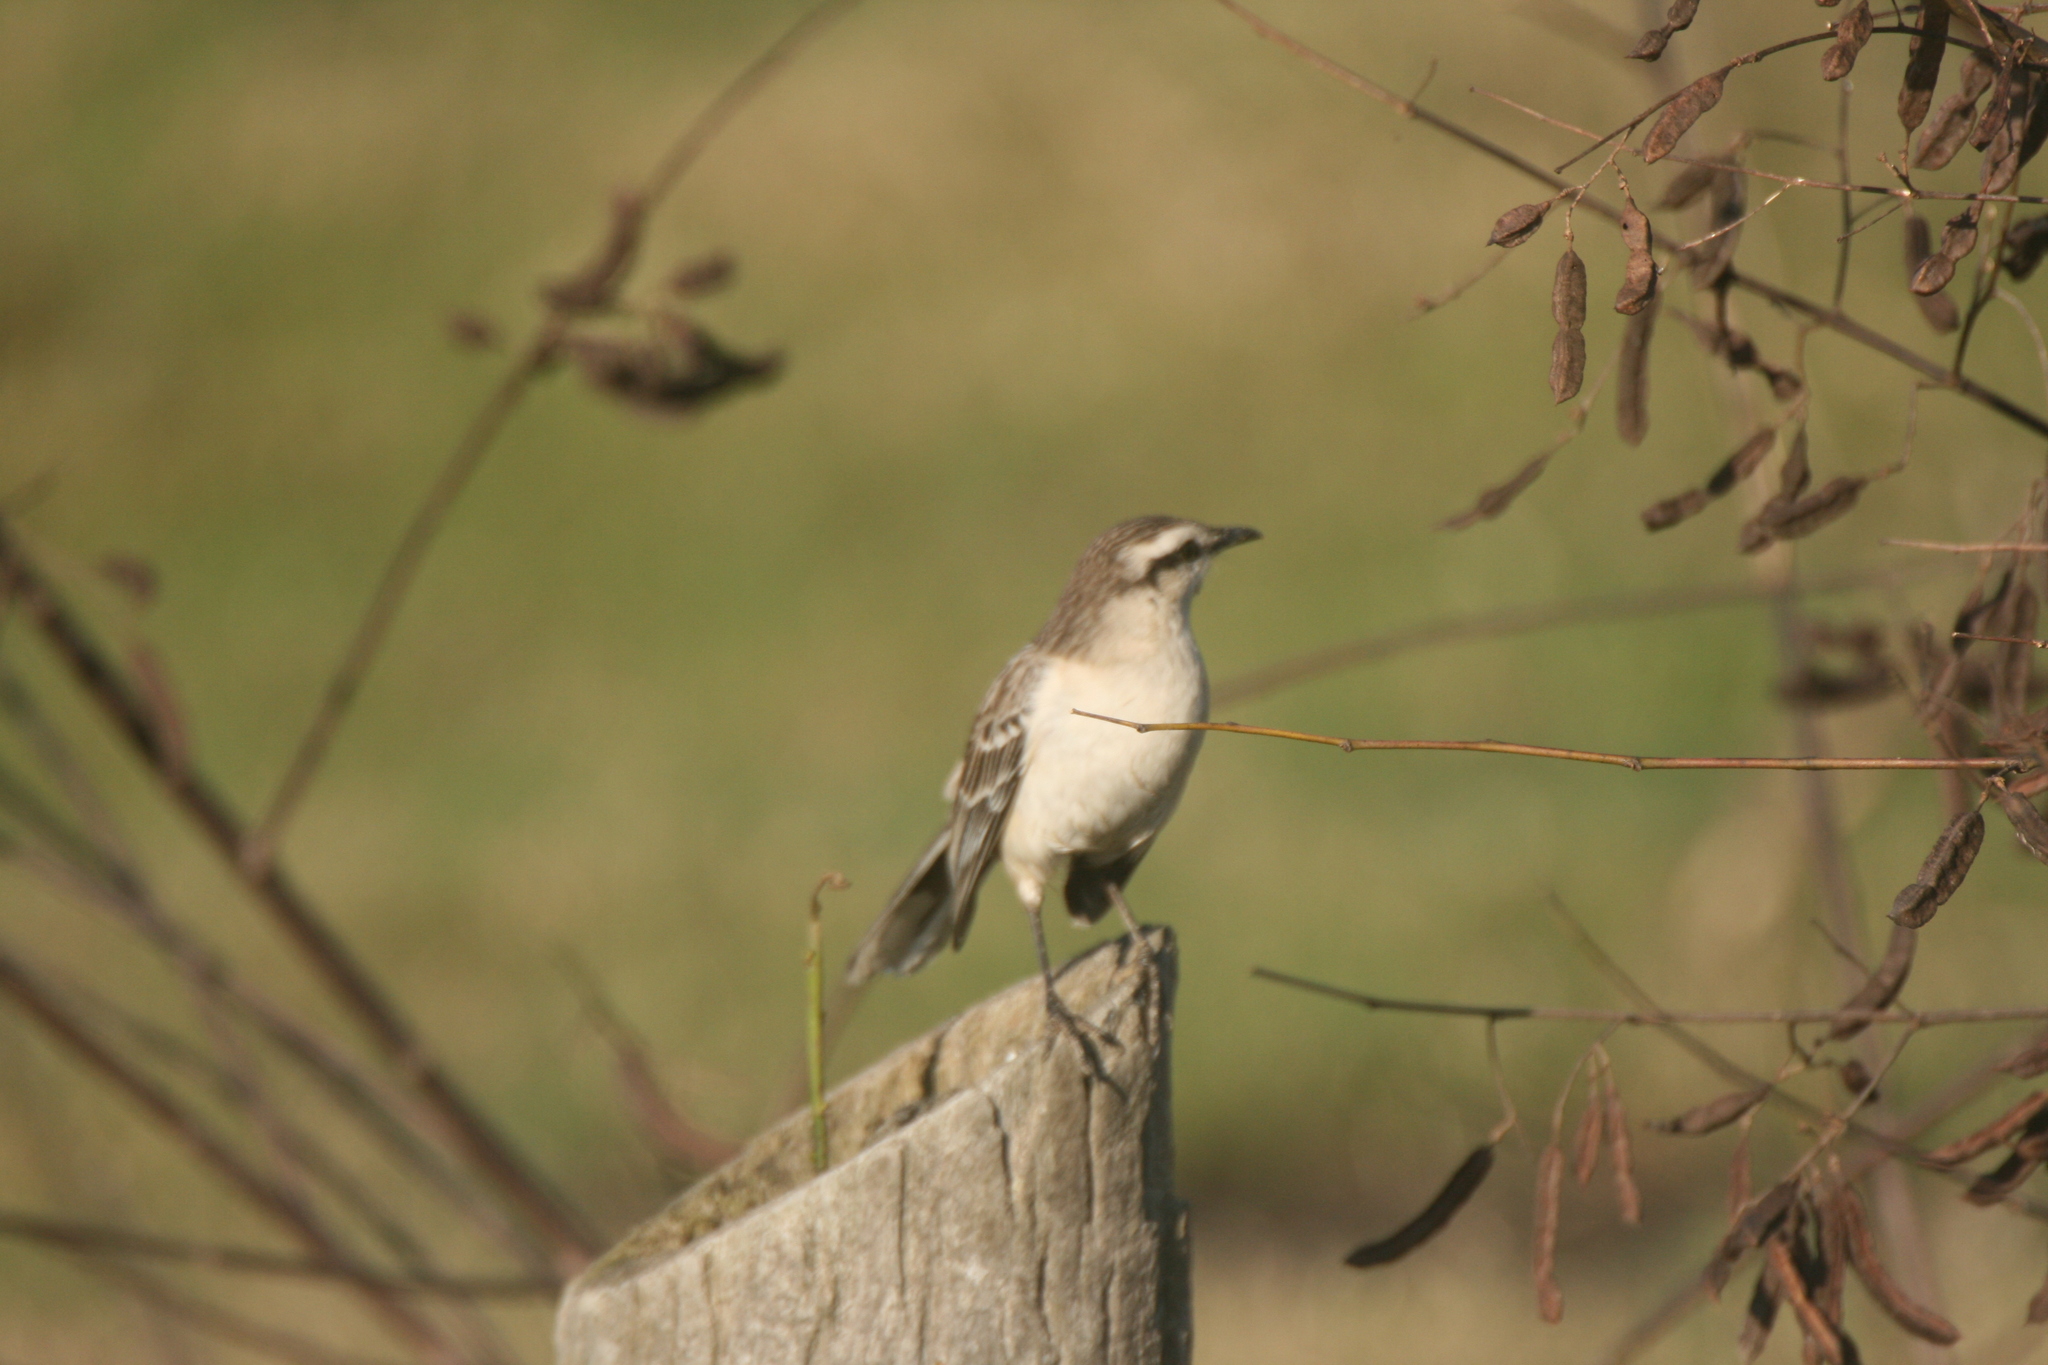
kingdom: Animalia
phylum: Chordata
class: Aves
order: Passeriformes
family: Mimidae
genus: Mimus
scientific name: Mimus saturninus
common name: Chalk-browed mockingbird
